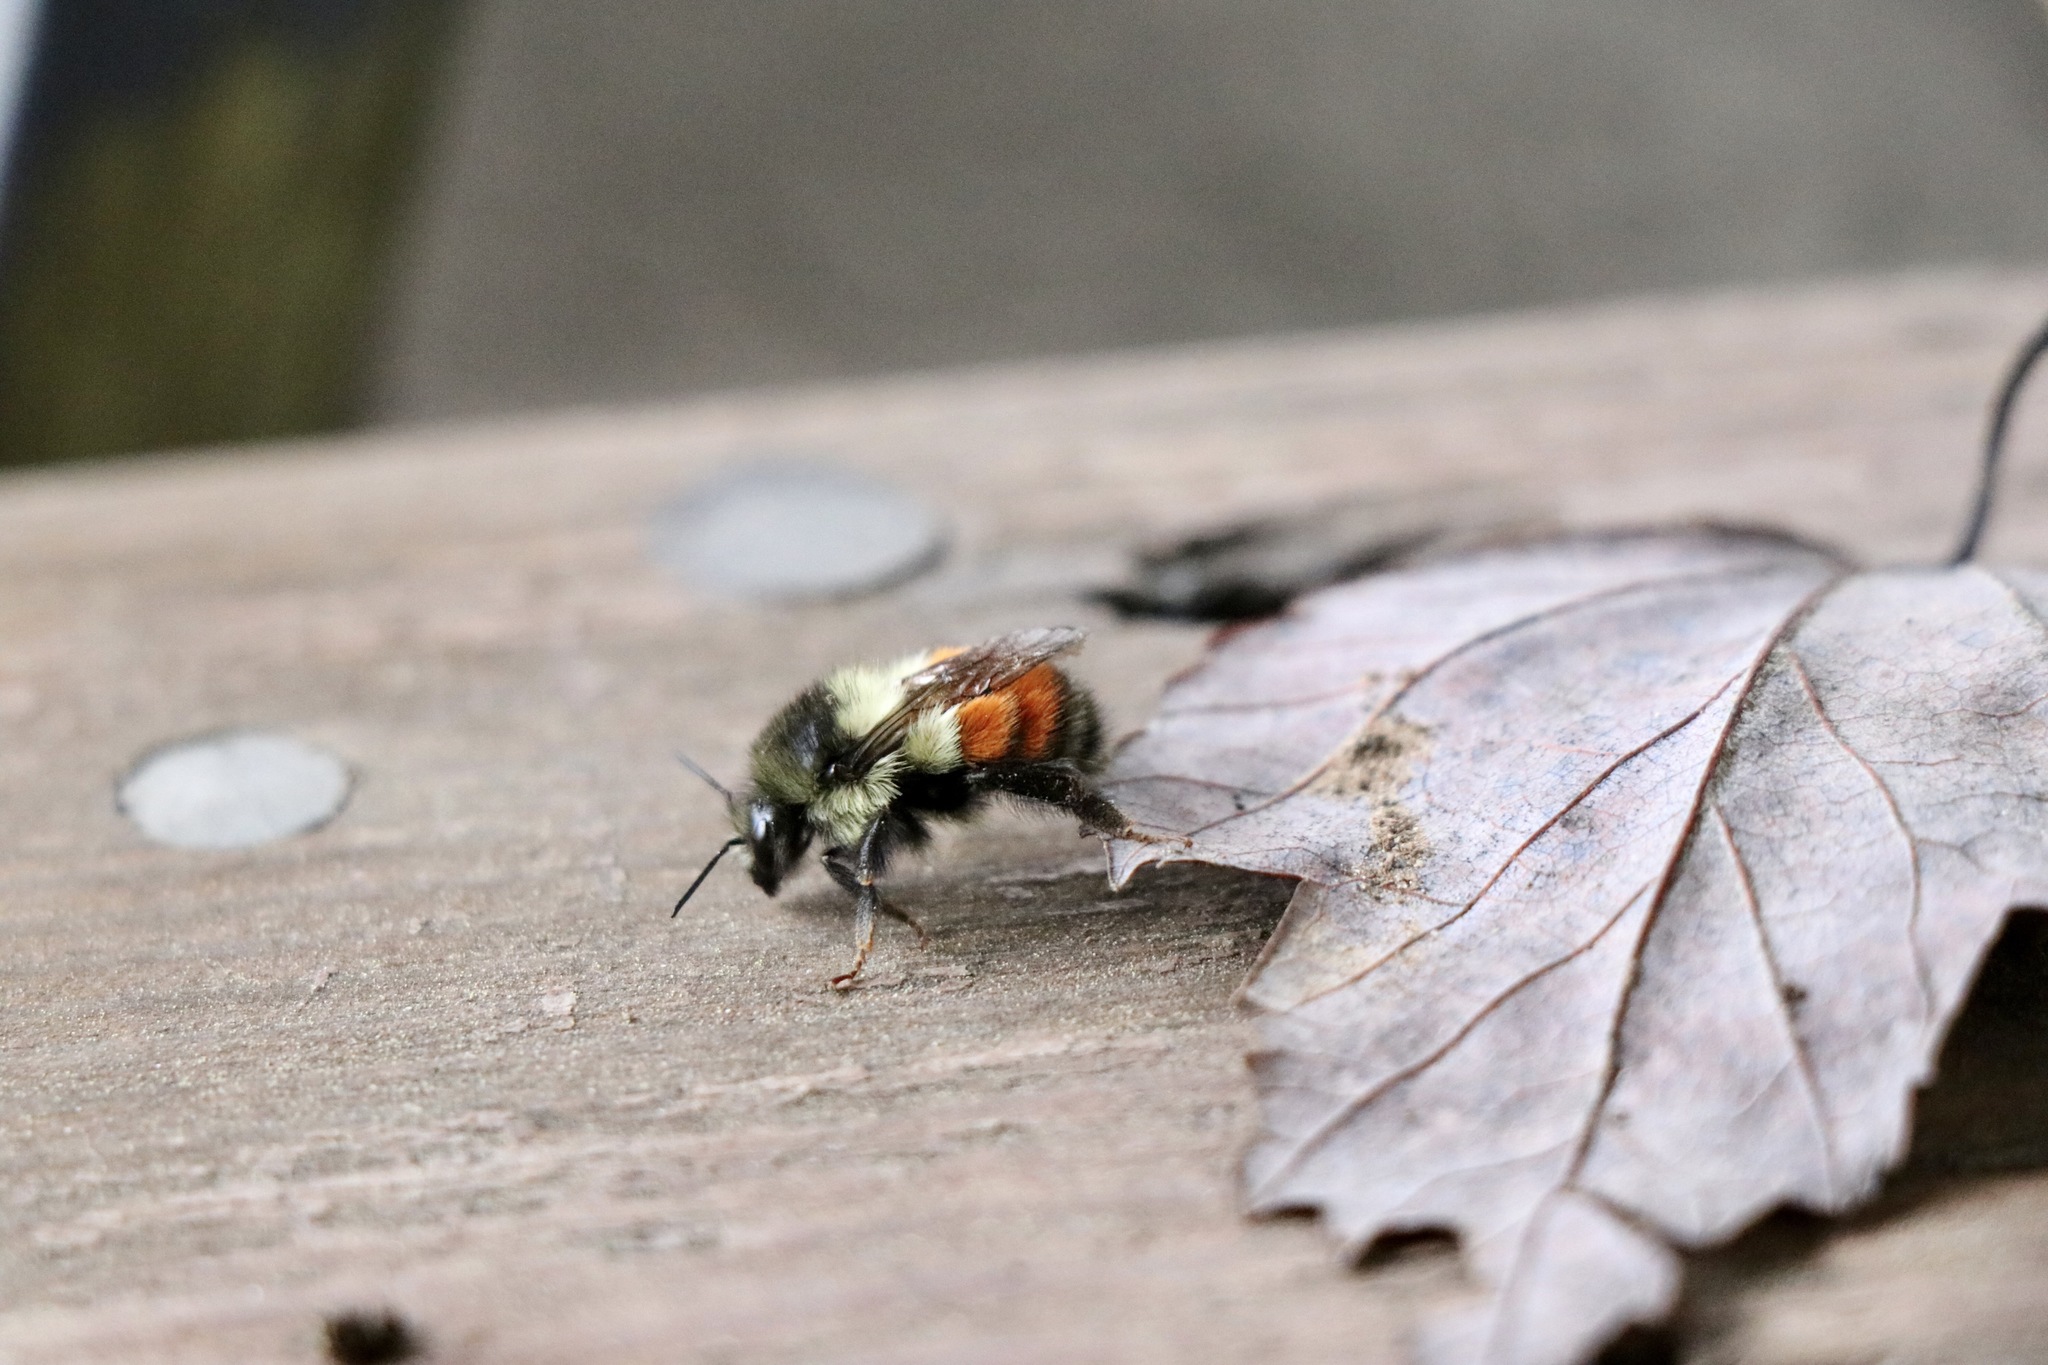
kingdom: Animalia
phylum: Arthropoda
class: Insecta
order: Hymenoptera
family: Apidae
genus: Bombus
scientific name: Bombus melanopygus
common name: Black tail bumble bee
